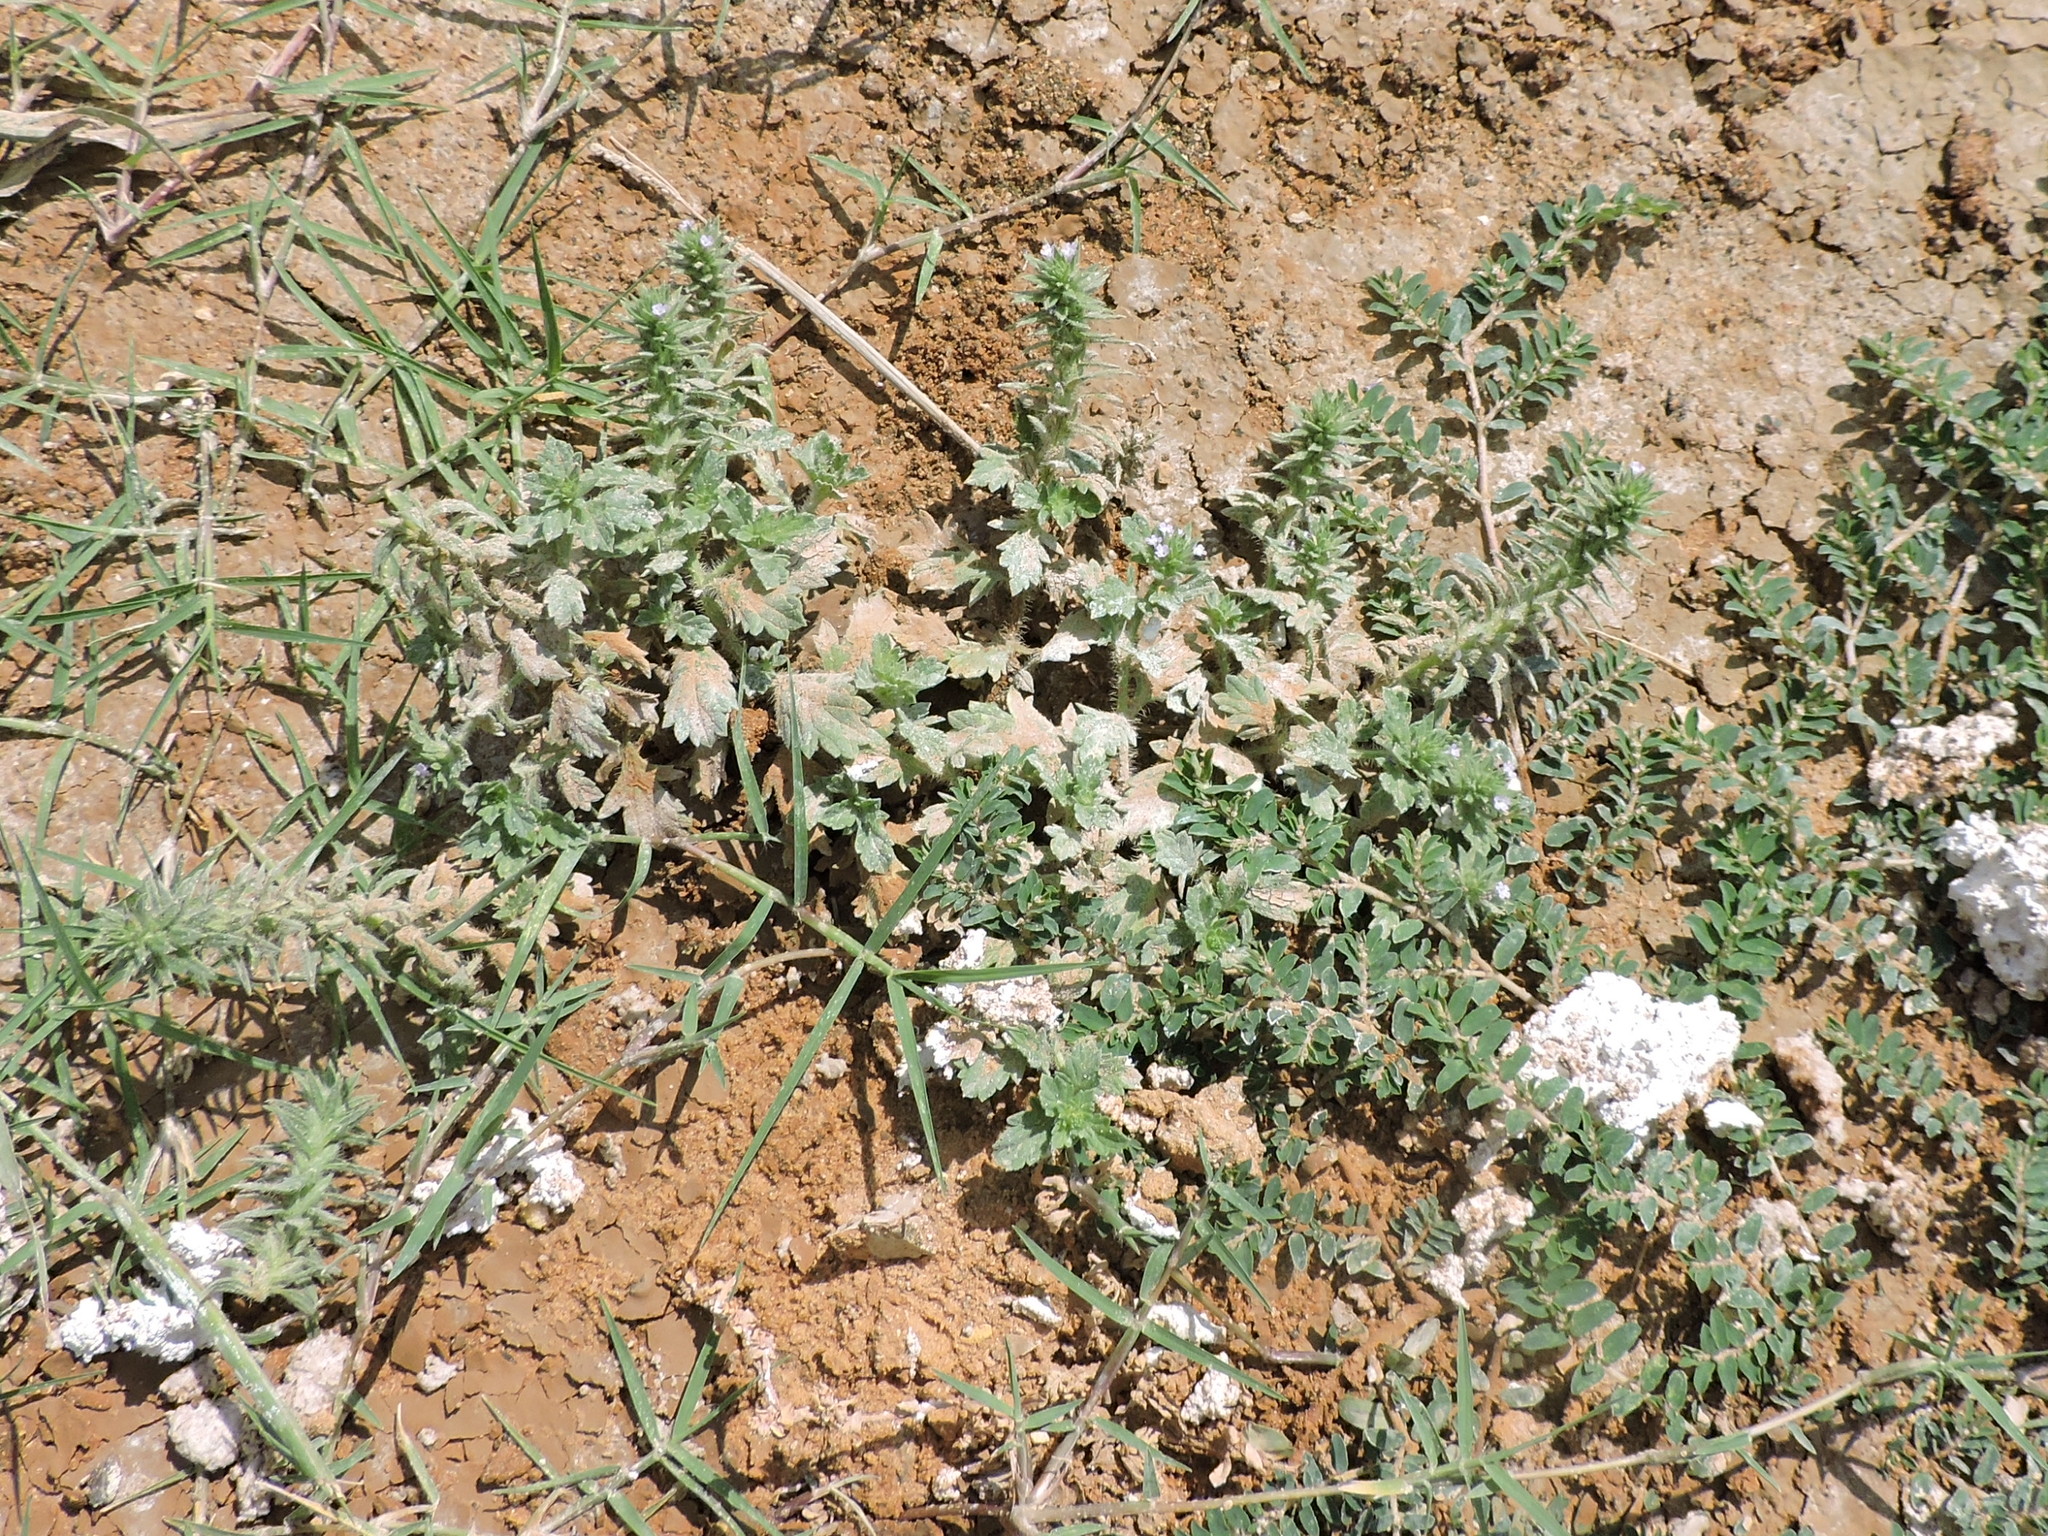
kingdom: Plantae
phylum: Tracheophyta
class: Magnoliopsida
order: Lamiales
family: Verbenaceae
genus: Verbena
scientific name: Verbena bracteata
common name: Bracted vervain
